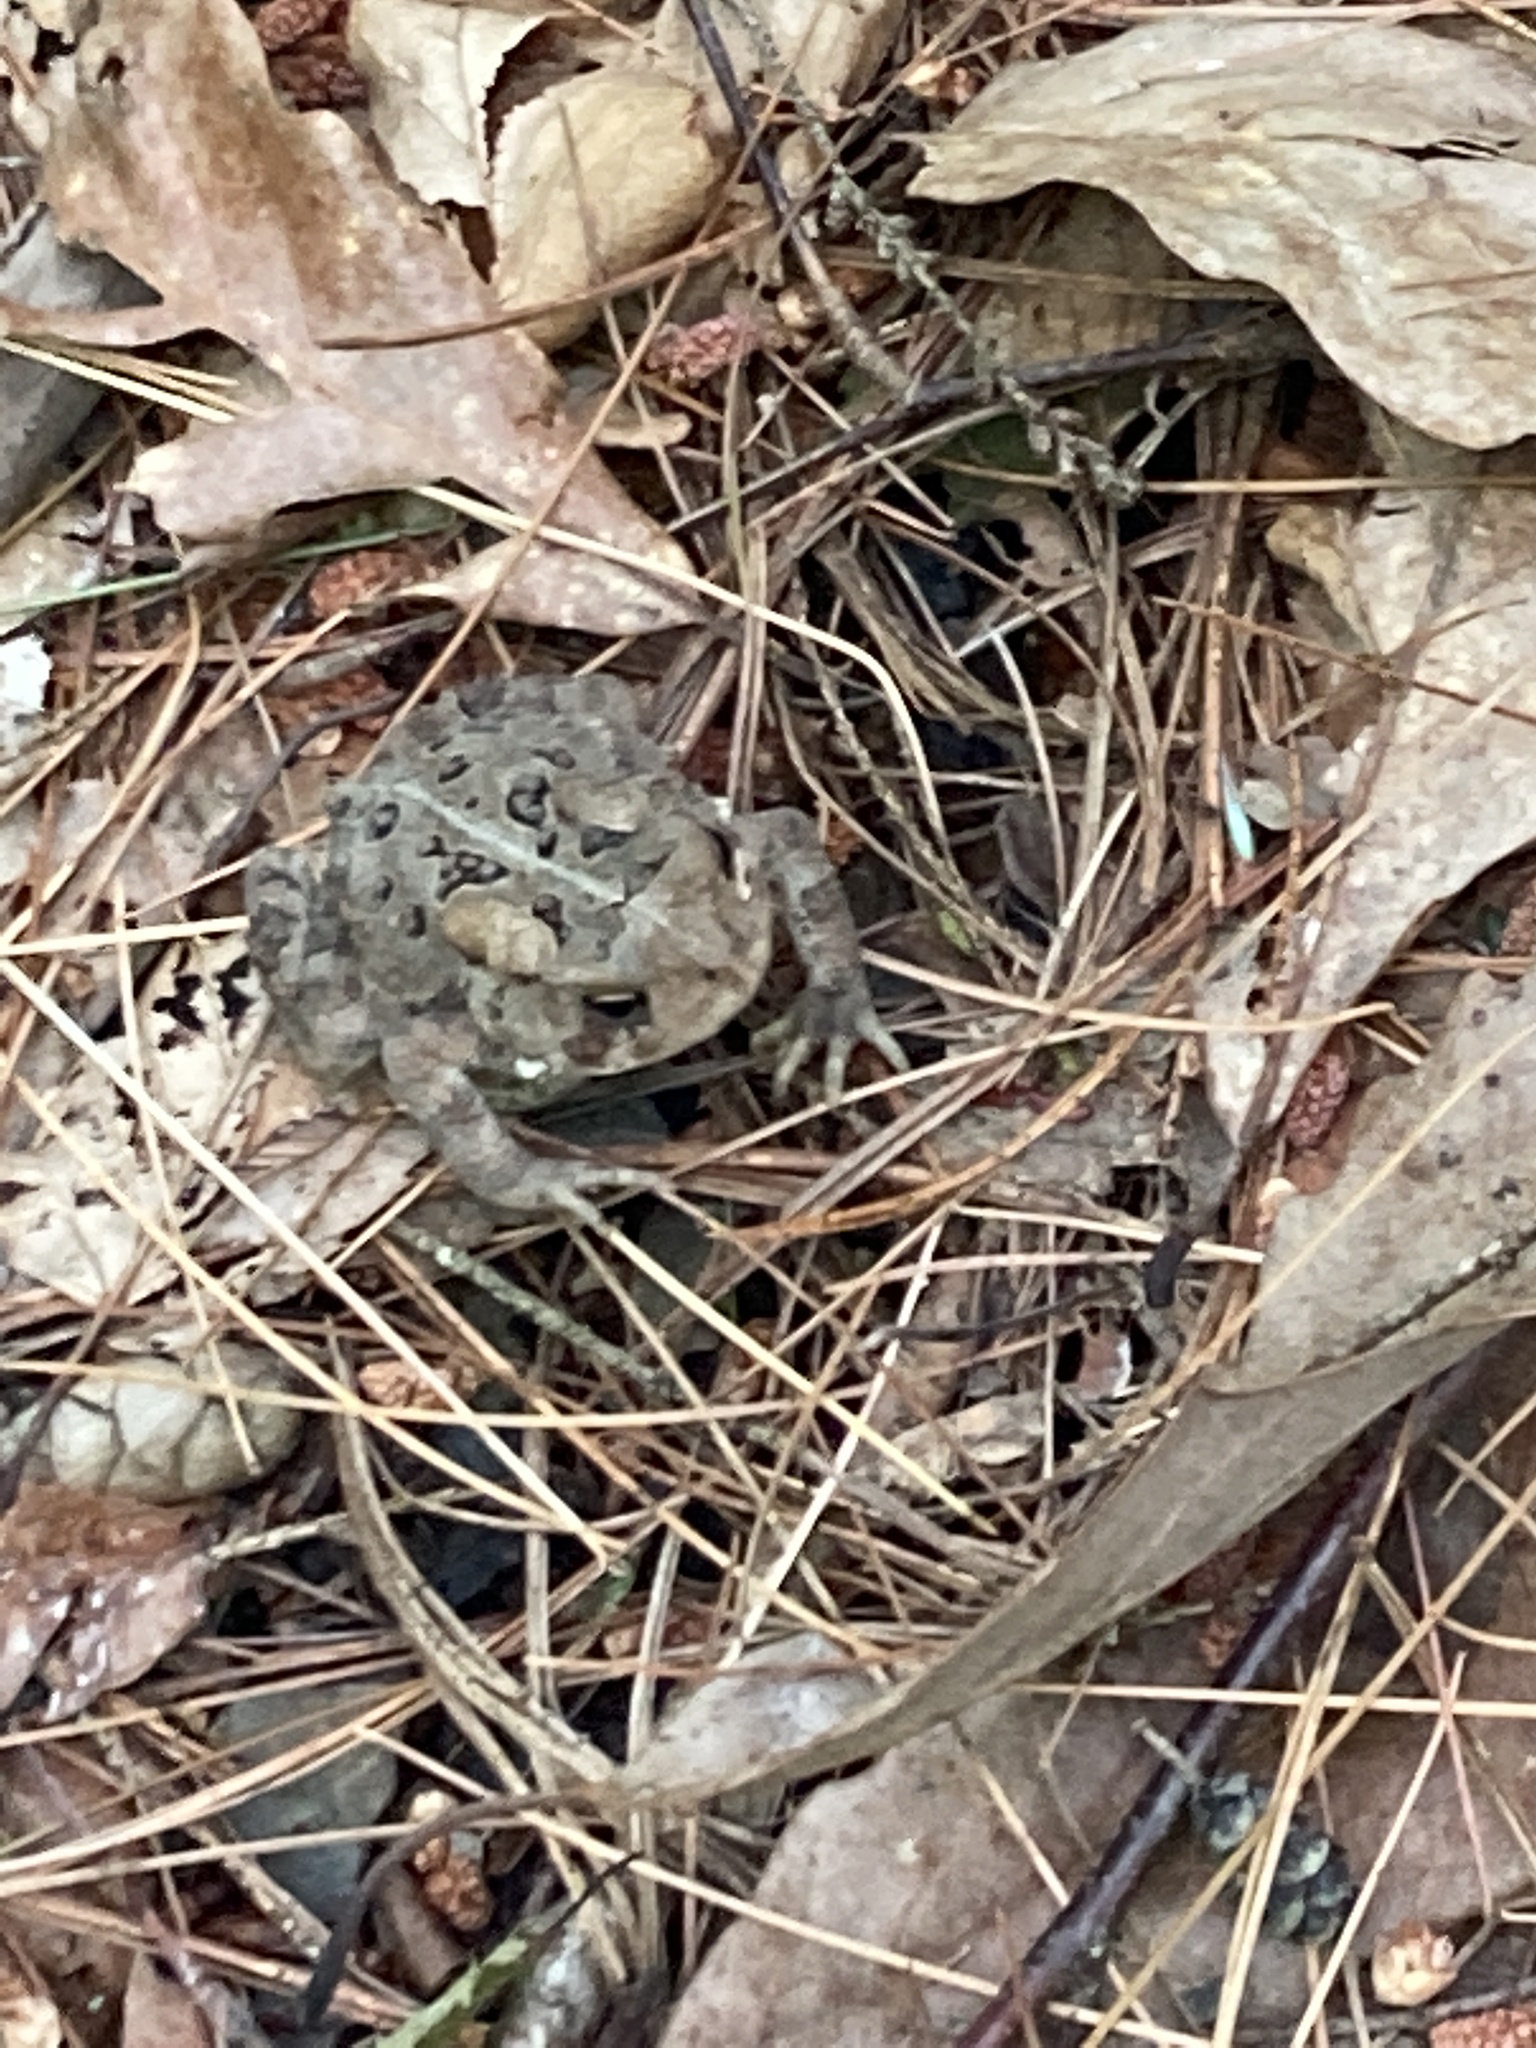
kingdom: Animalia
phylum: Chordata
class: Amphibia
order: Anura
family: Bufonidae
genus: Anaxyrus
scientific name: Anaxyrus americanus
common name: American toad
